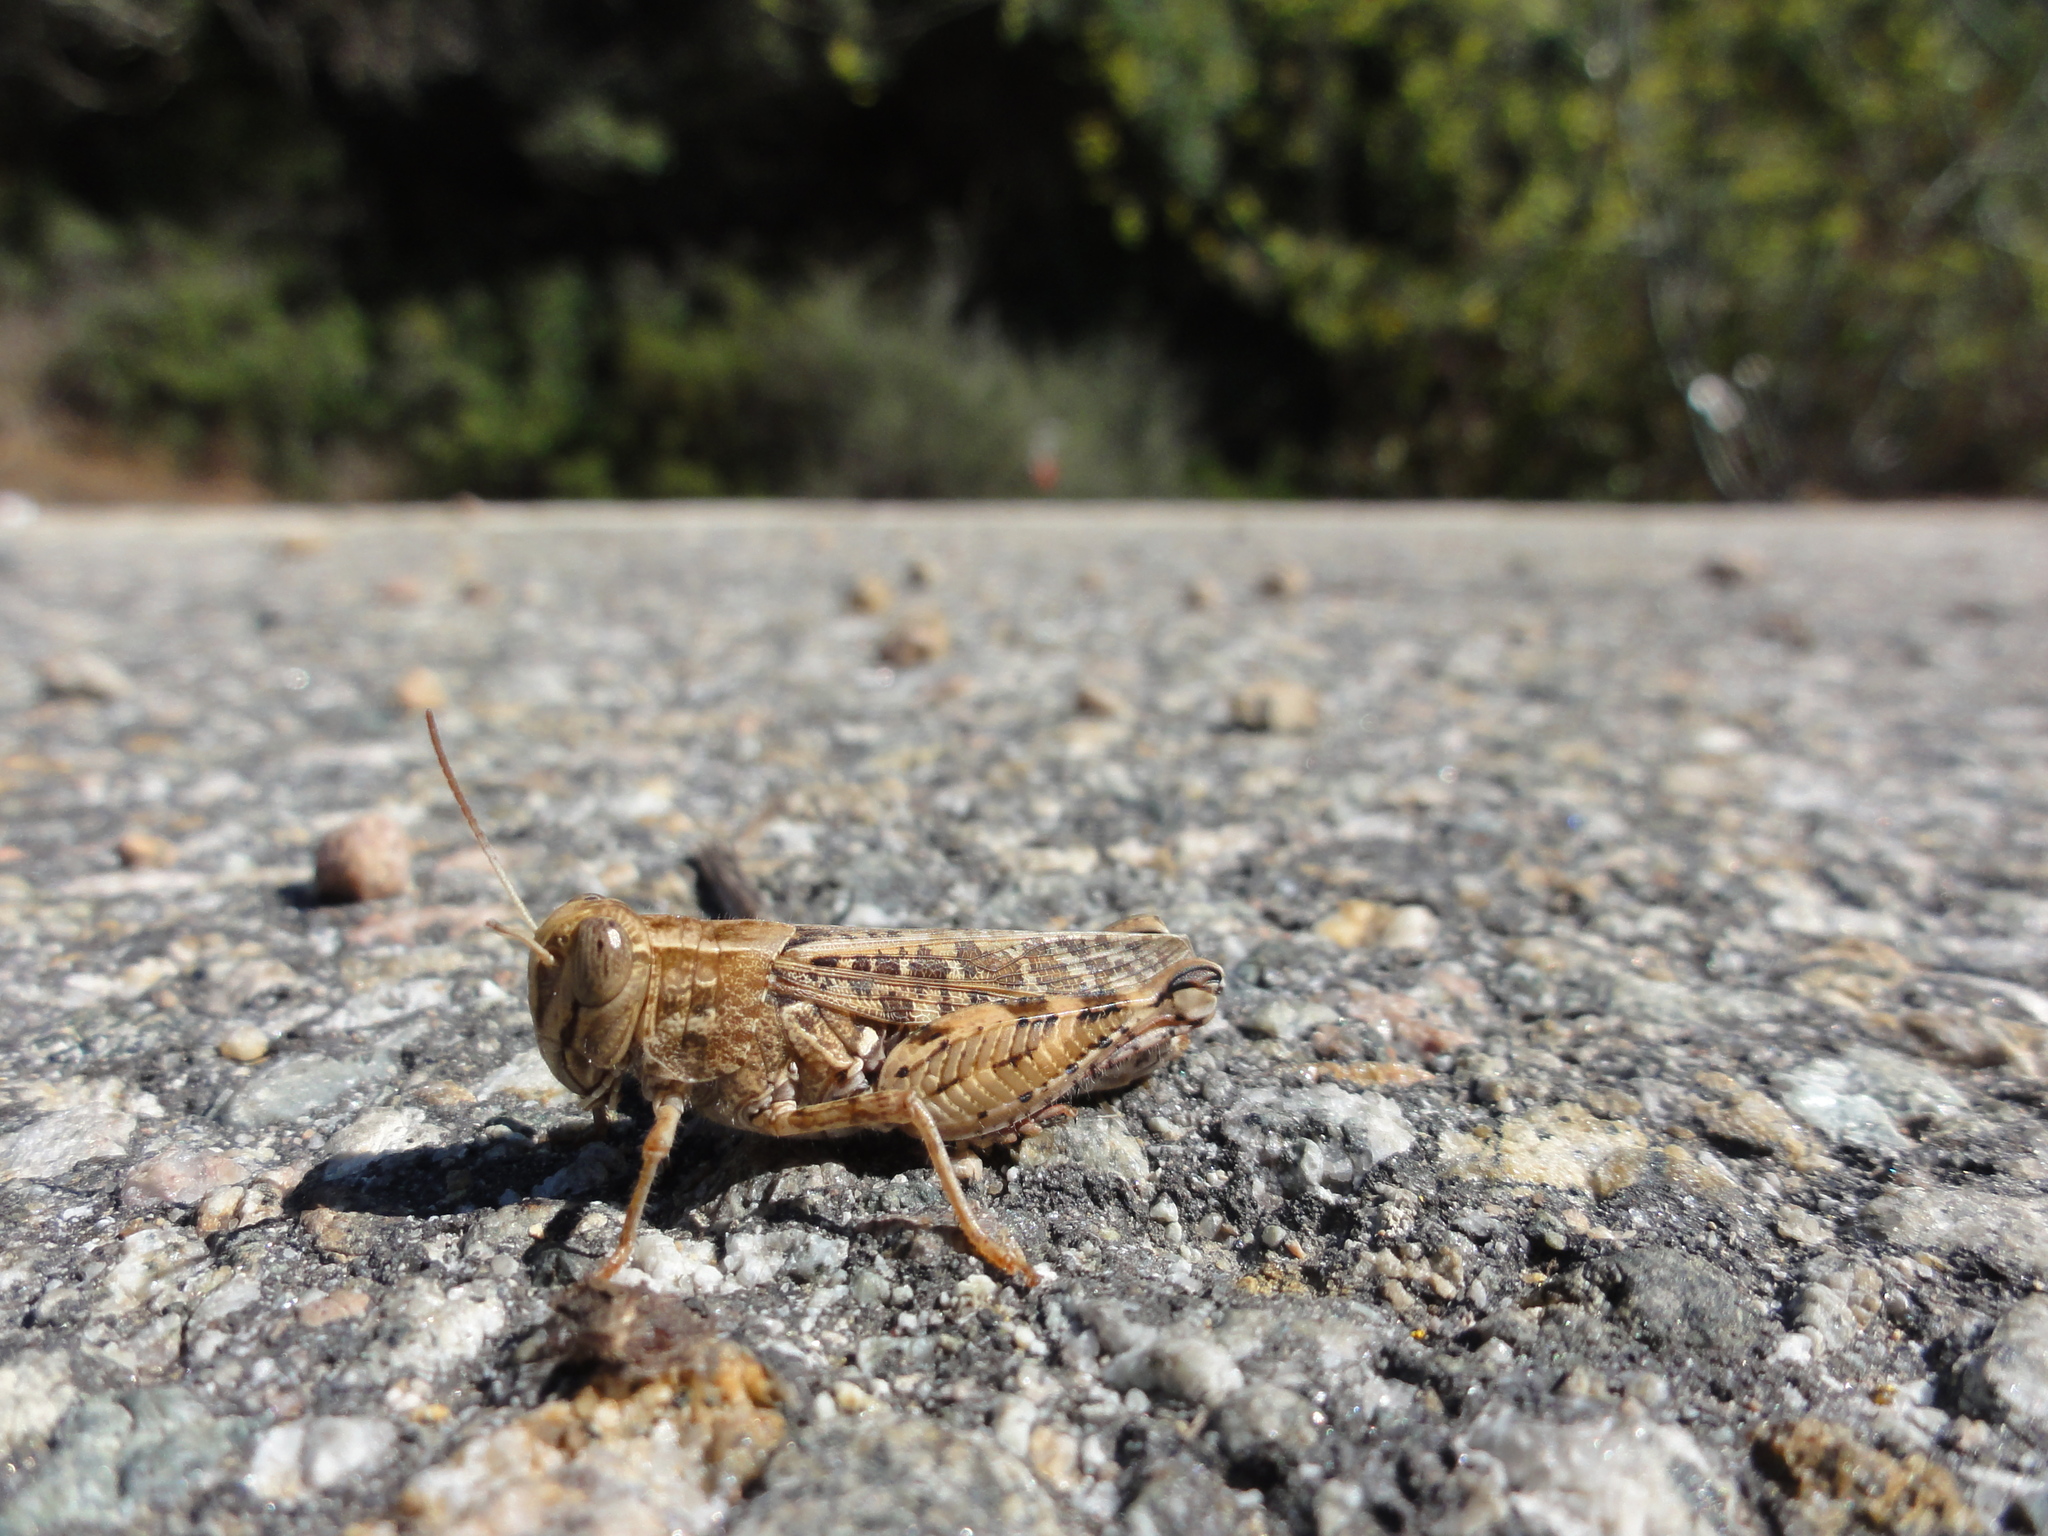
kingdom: Animalia
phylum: Arthropoda
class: Insecta
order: Orthoptera
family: Acrididae
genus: Calliptamus
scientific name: Calliptamus barbarus
